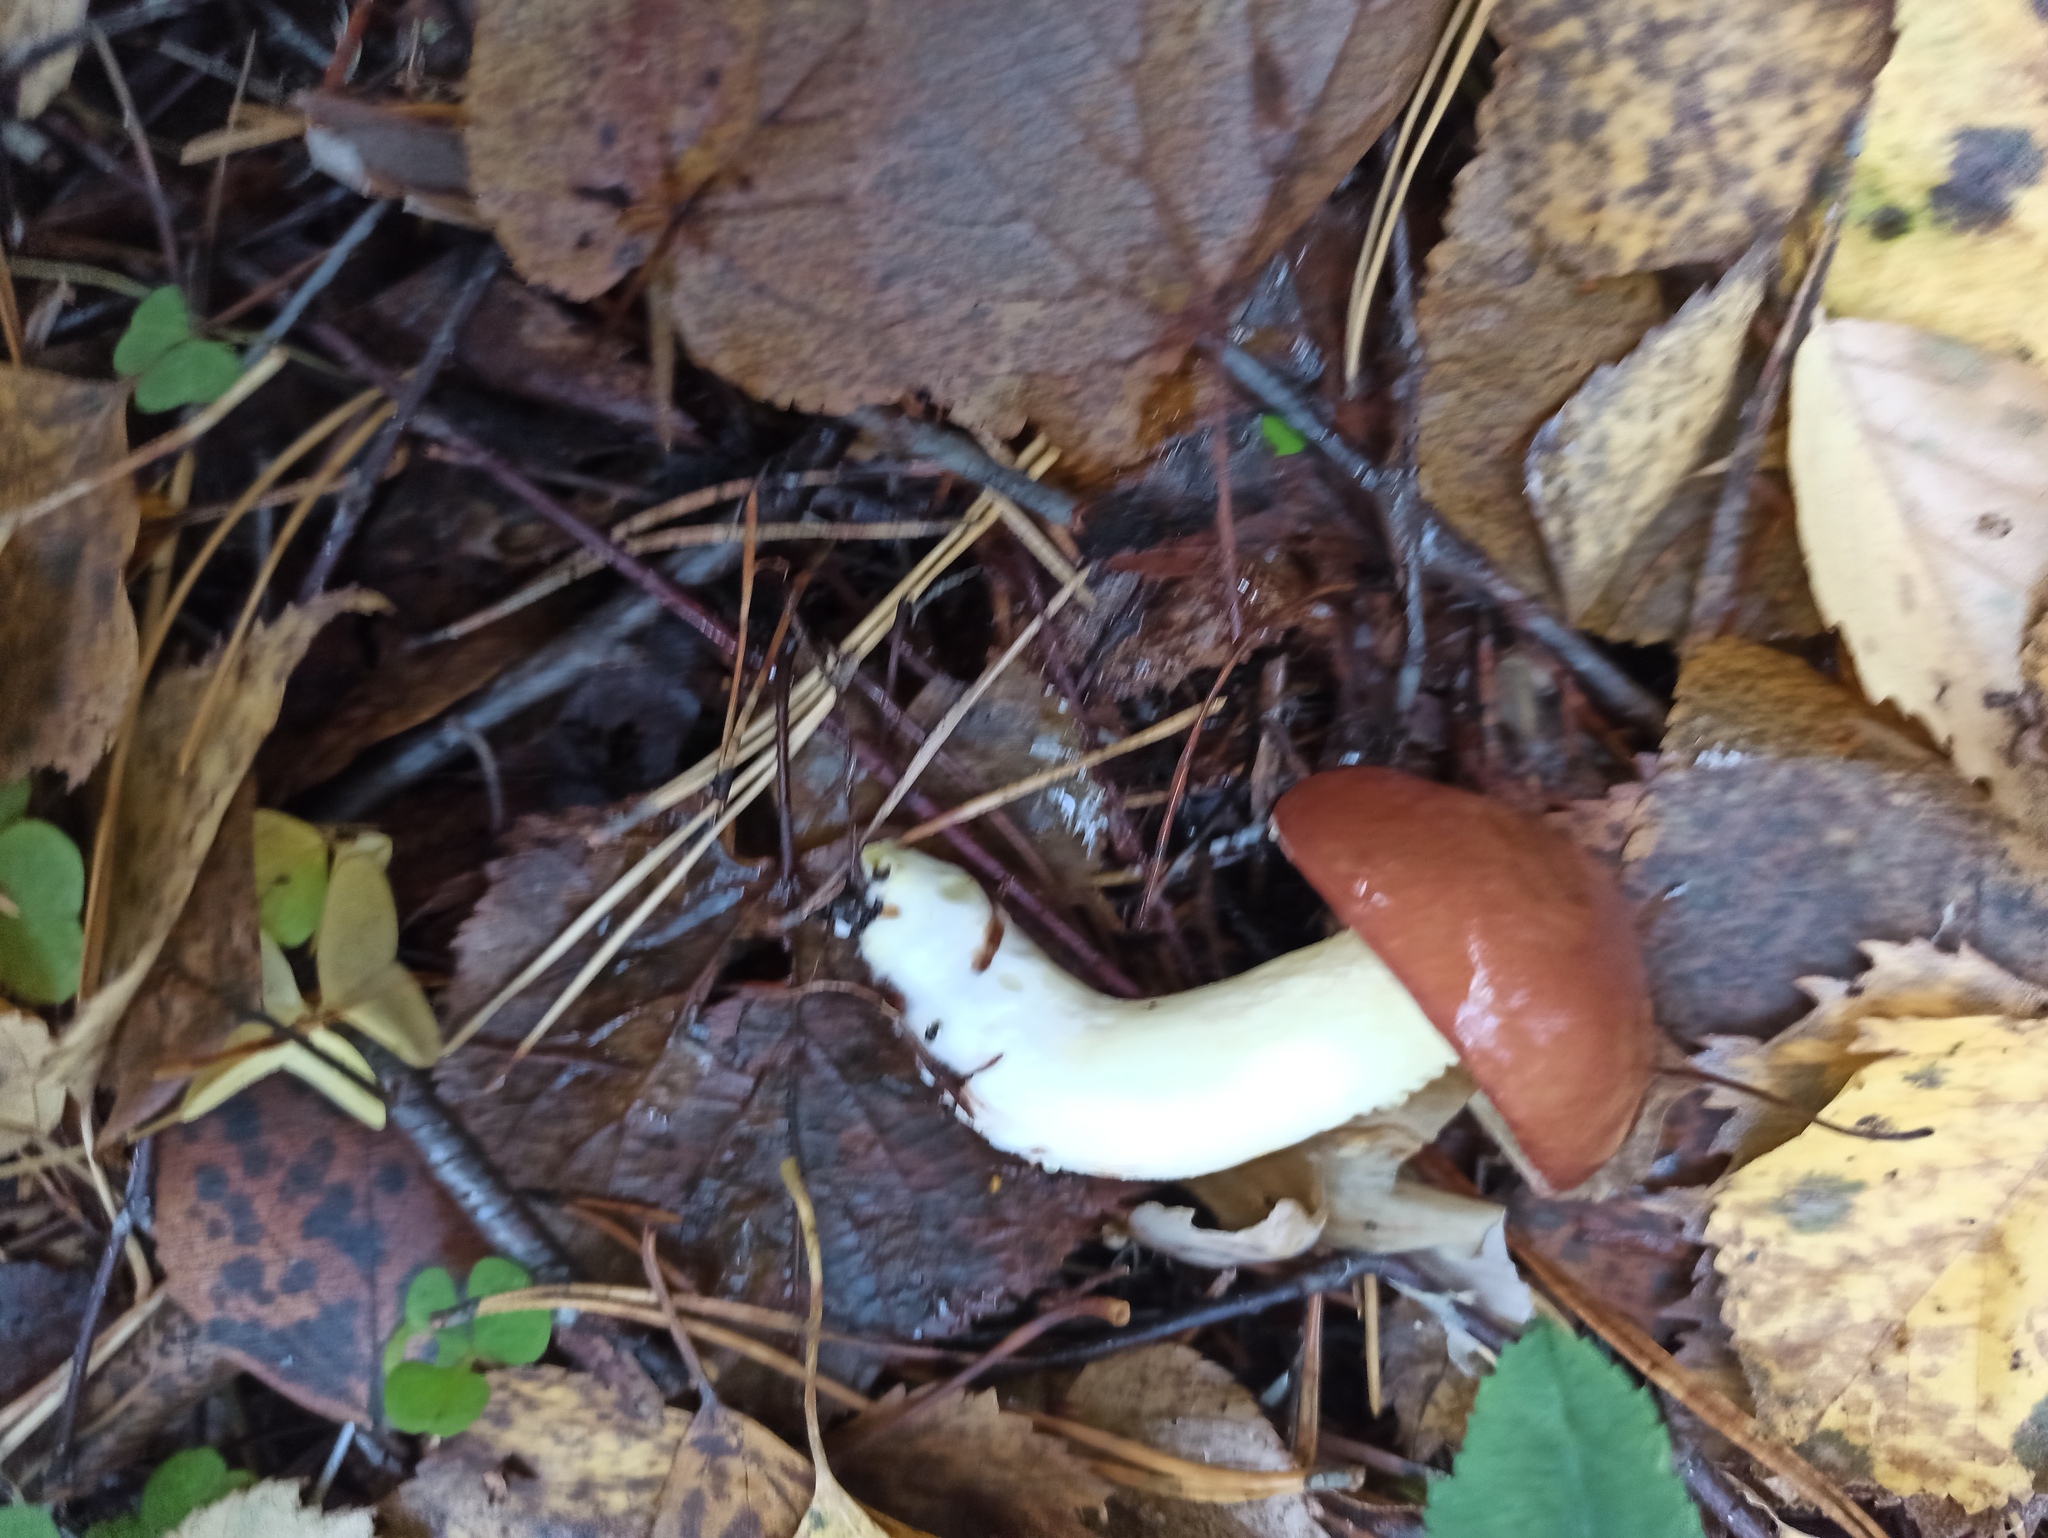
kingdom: Fungi
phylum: Basidiomycota
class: Agaricomycetes
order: Boletales
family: Suillaceae
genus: Suillus
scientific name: Suillus luteus
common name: Slippery jack
